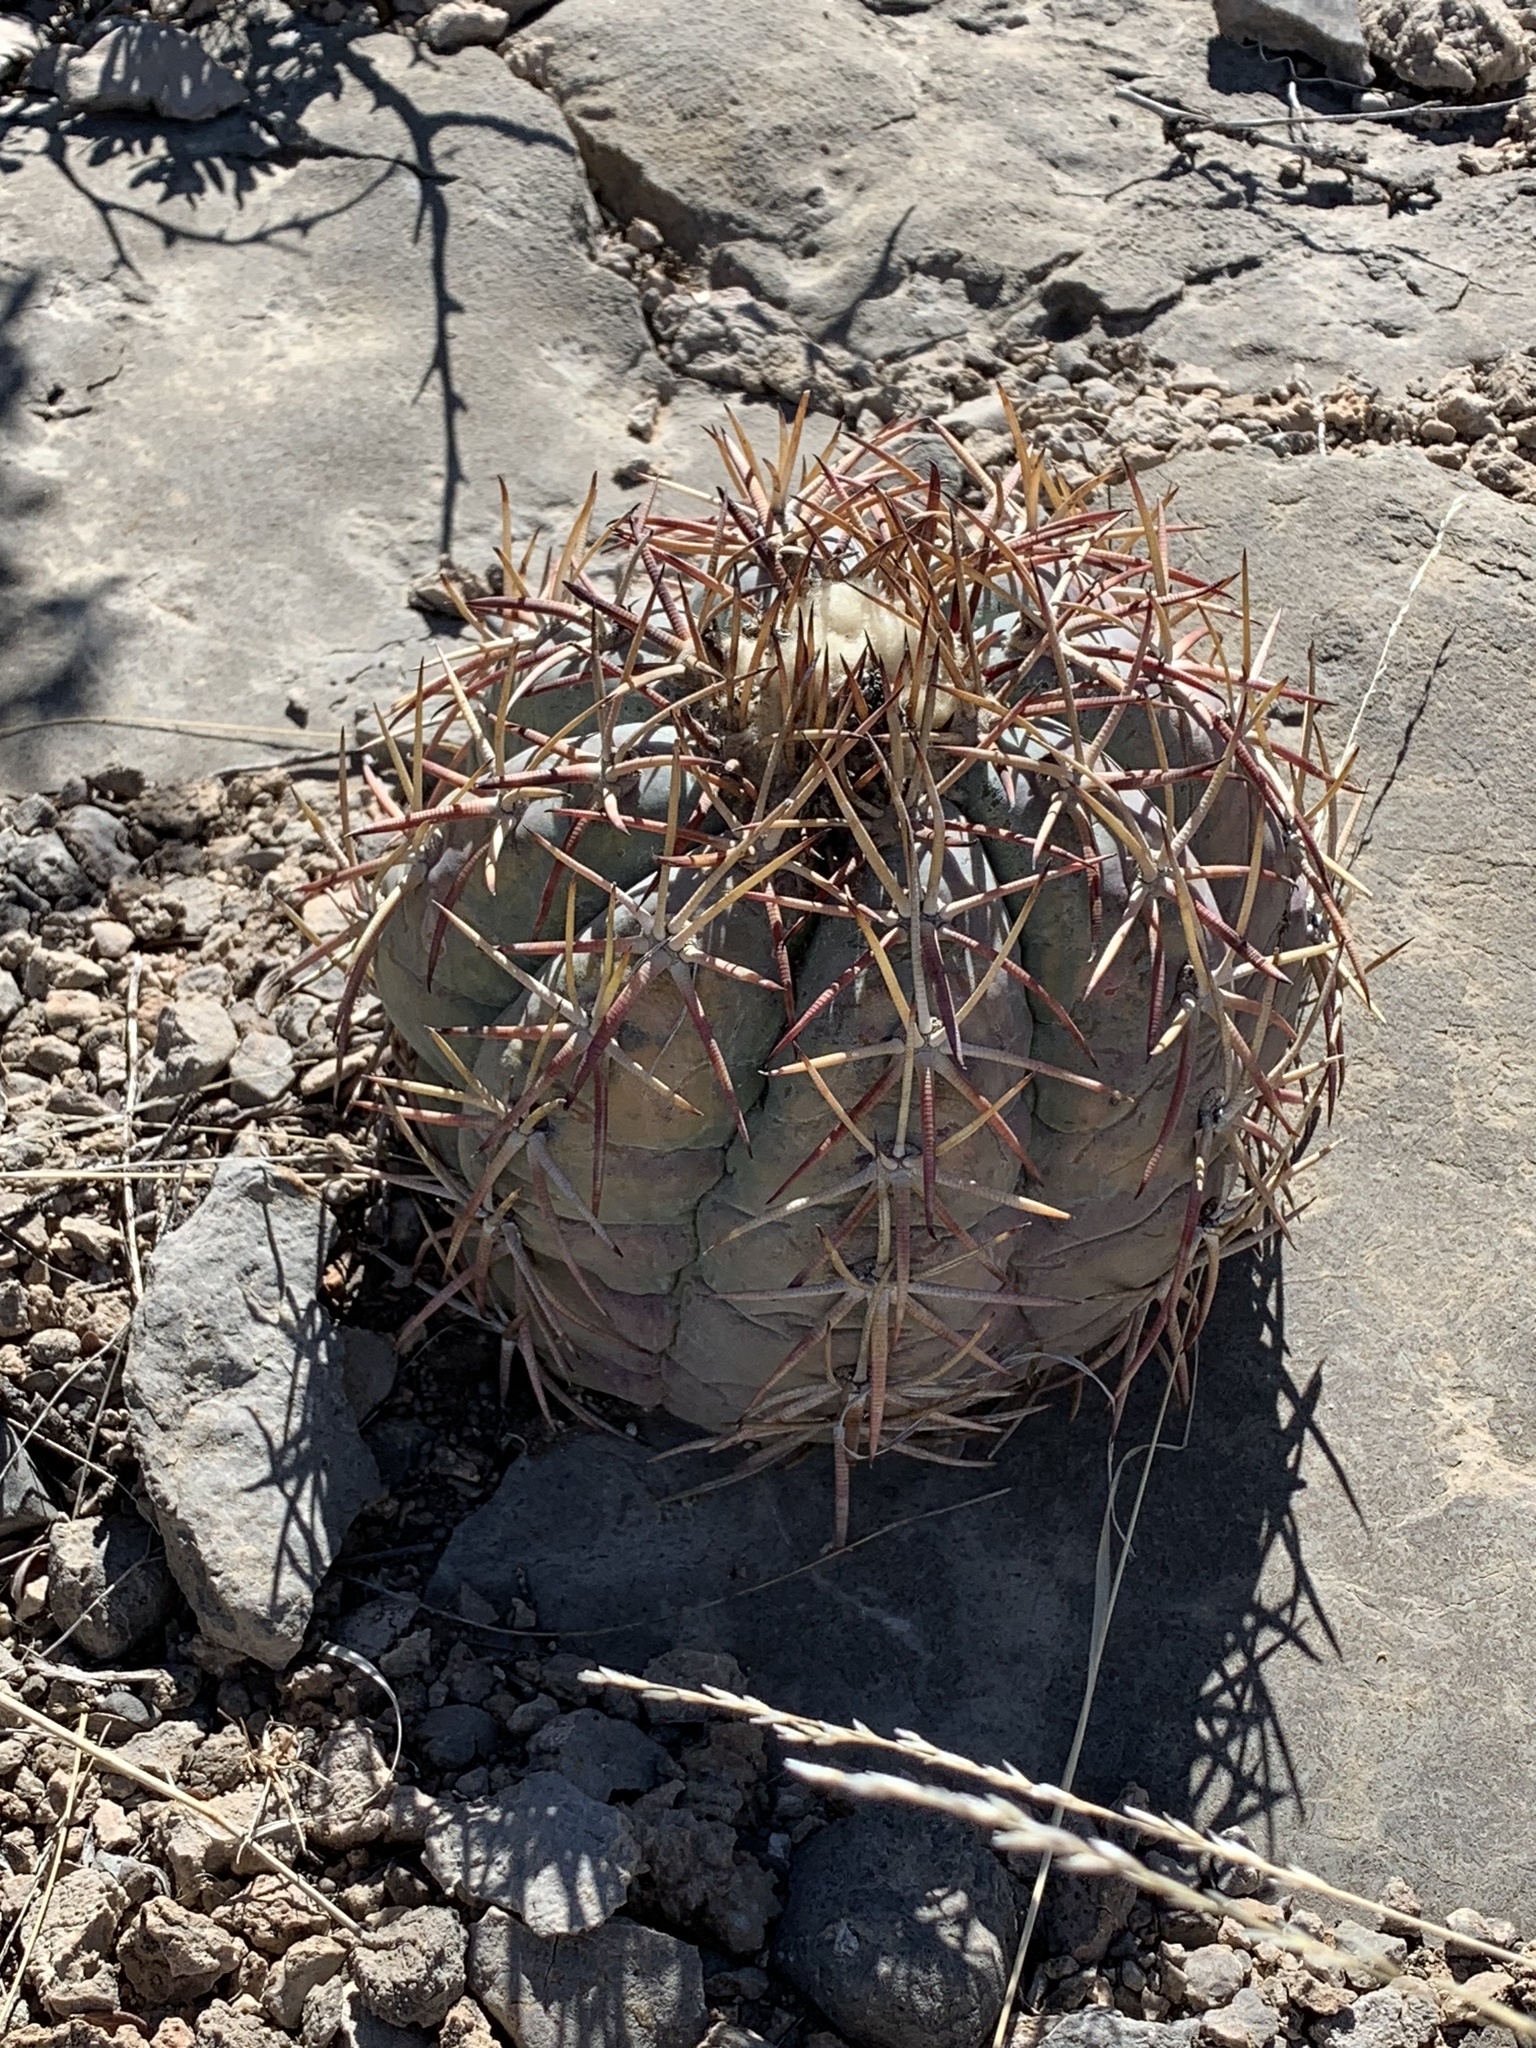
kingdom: Plantae
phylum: Tracheophyta
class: Magnoliopsida
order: Caryophyllales
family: Cactaceae
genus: Echinocactus
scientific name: Echinocactus horizonthalonius
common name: Devilshead
